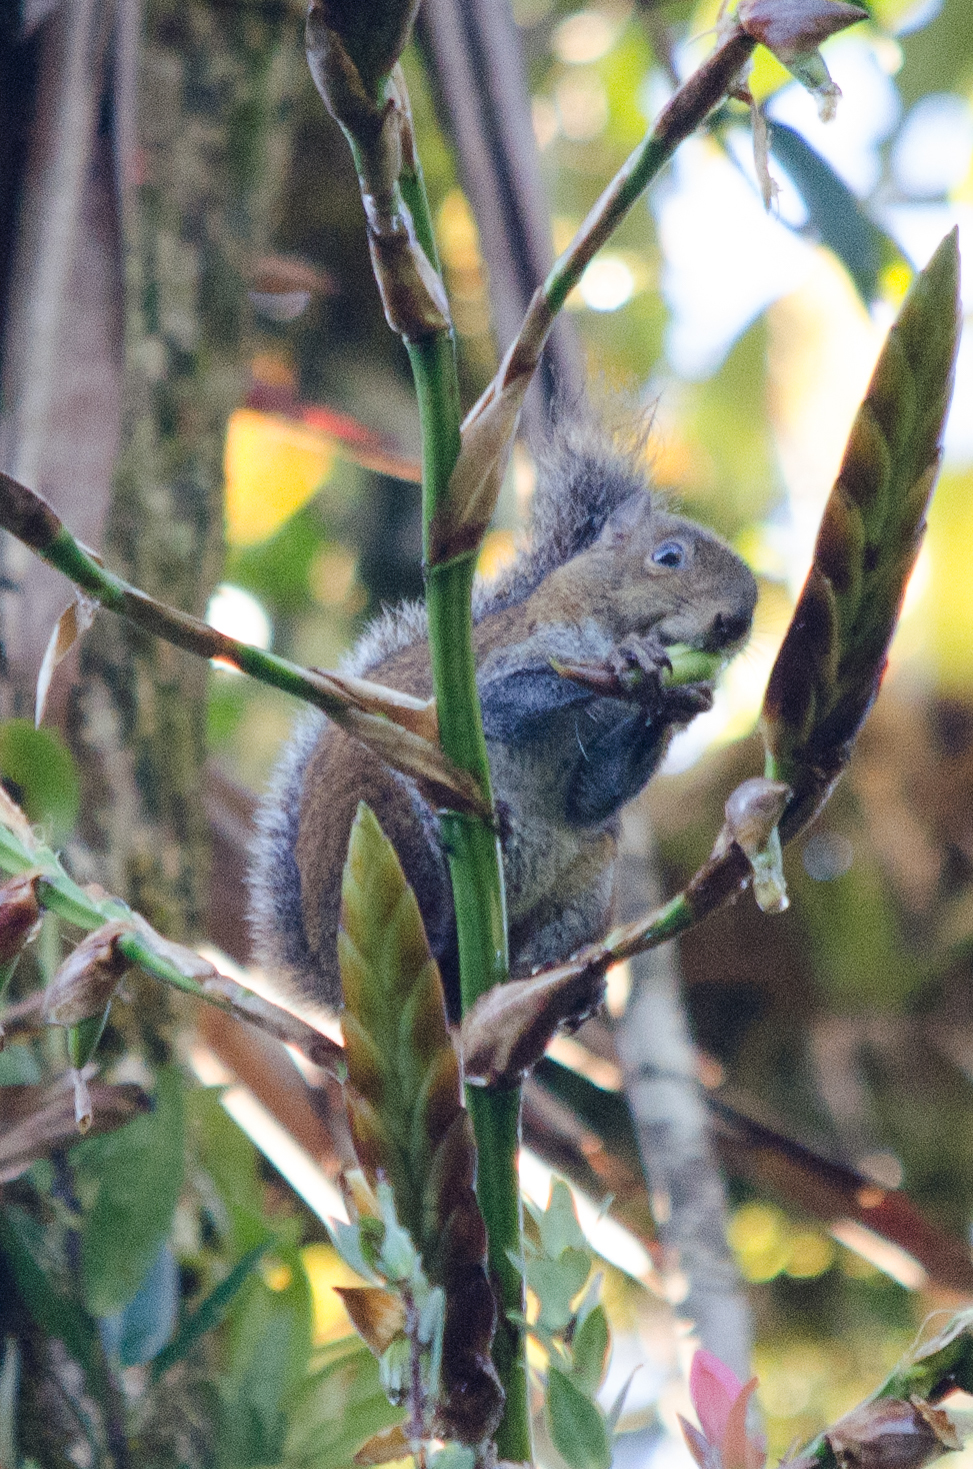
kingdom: Animalia
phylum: Chordata
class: Mammalia
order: Rodentia
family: Sciuridae
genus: Sciurus
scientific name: Sciurus deppei
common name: Deppe's squirrel
